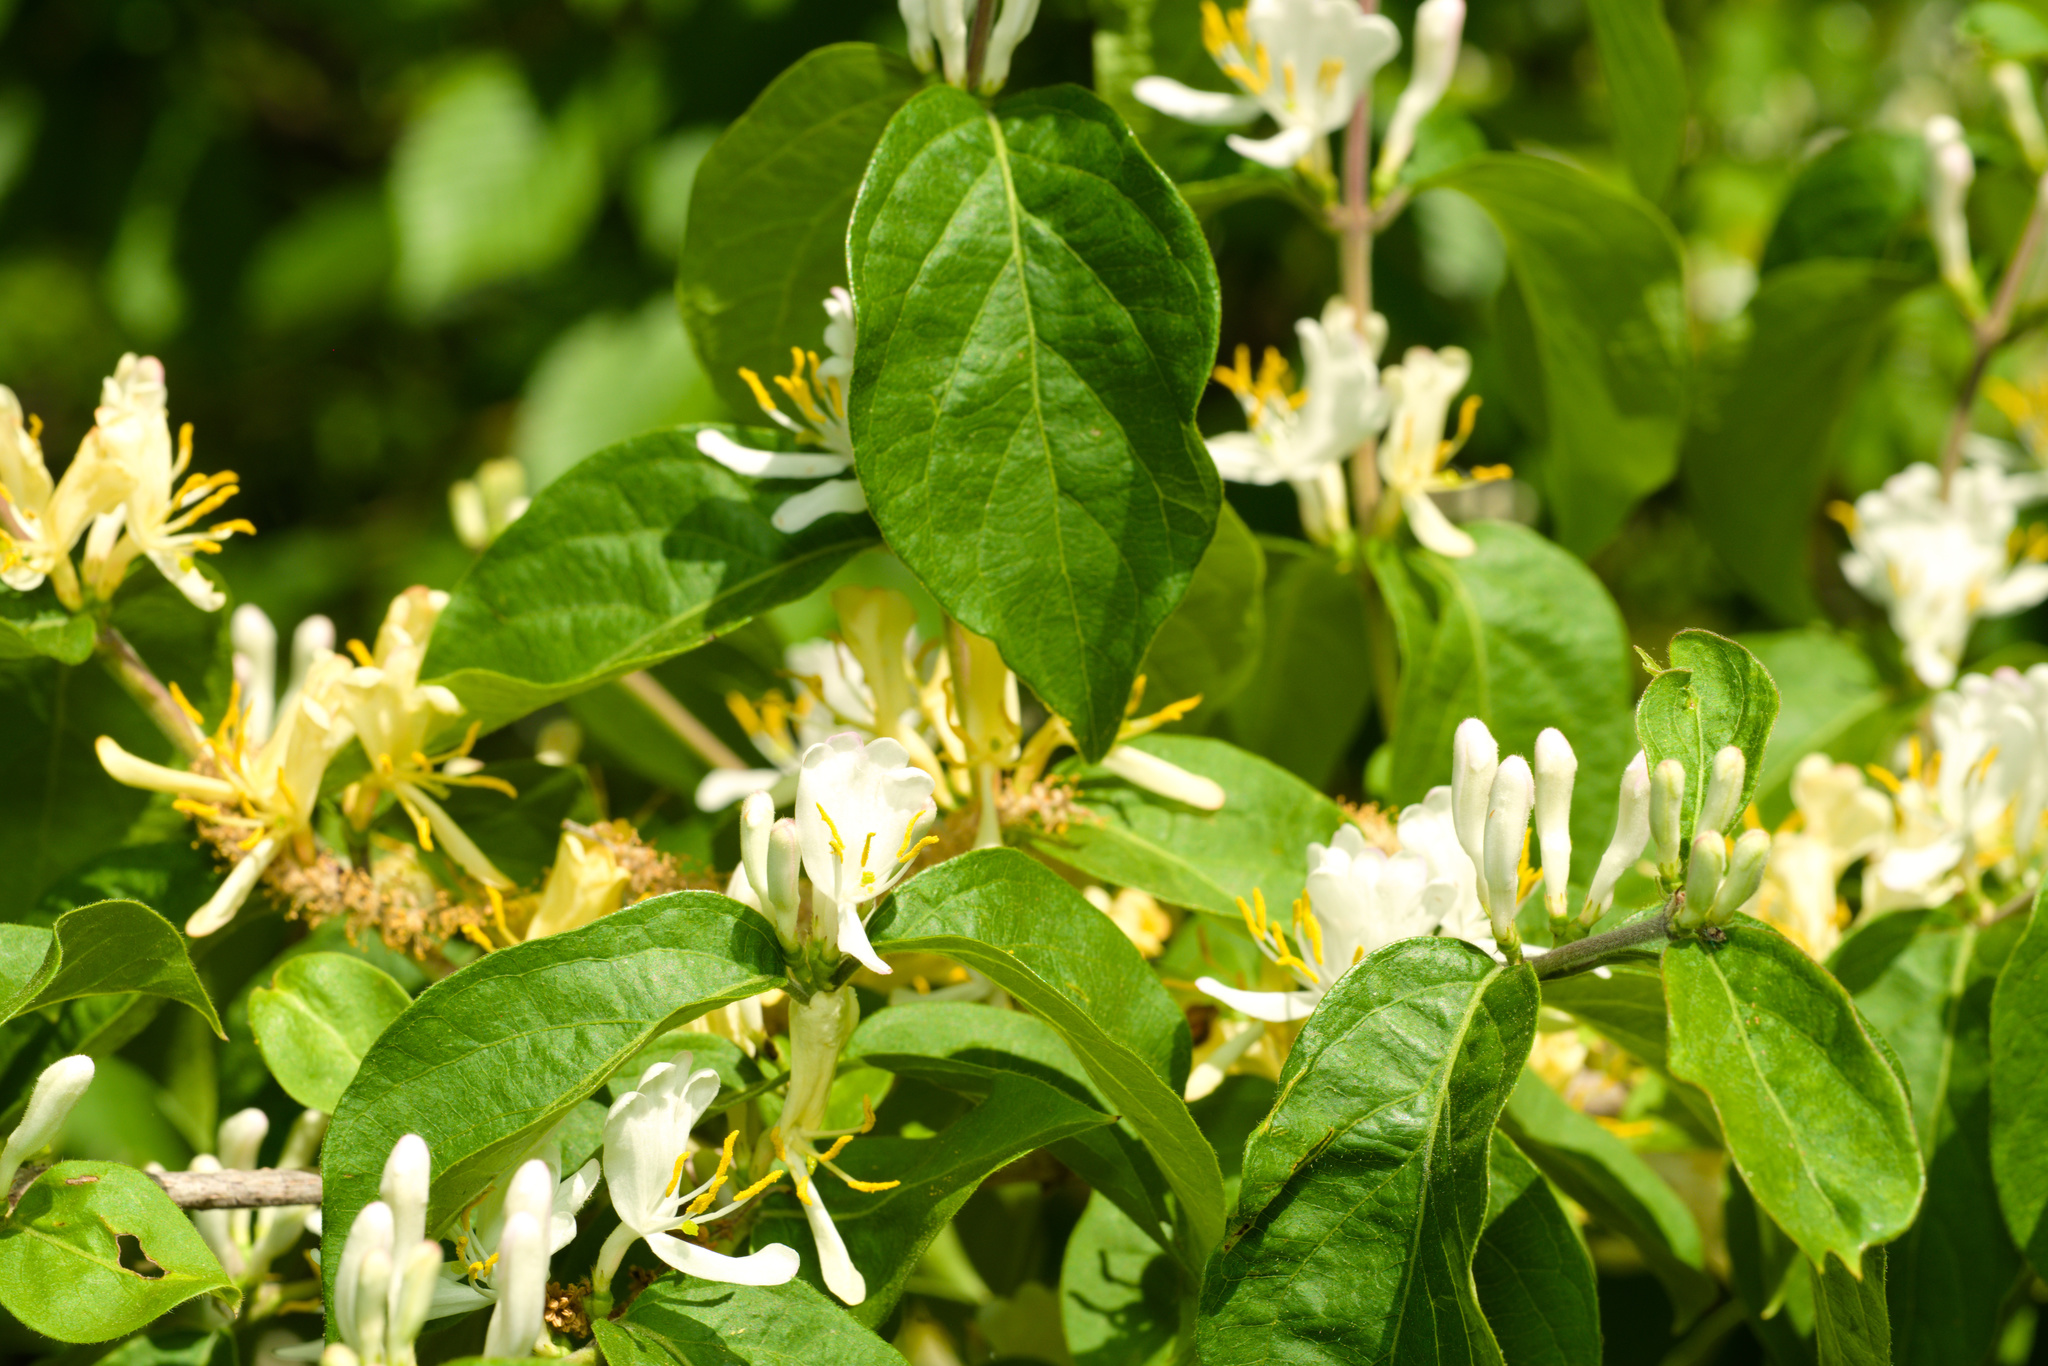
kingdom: Plantae
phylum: Tracheophyta
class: Magnoliopsida
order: Dipsacales
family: Caprifoliaceae
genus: Lonicera
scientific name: Lonicera maackii
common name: Amur honeysuckle
